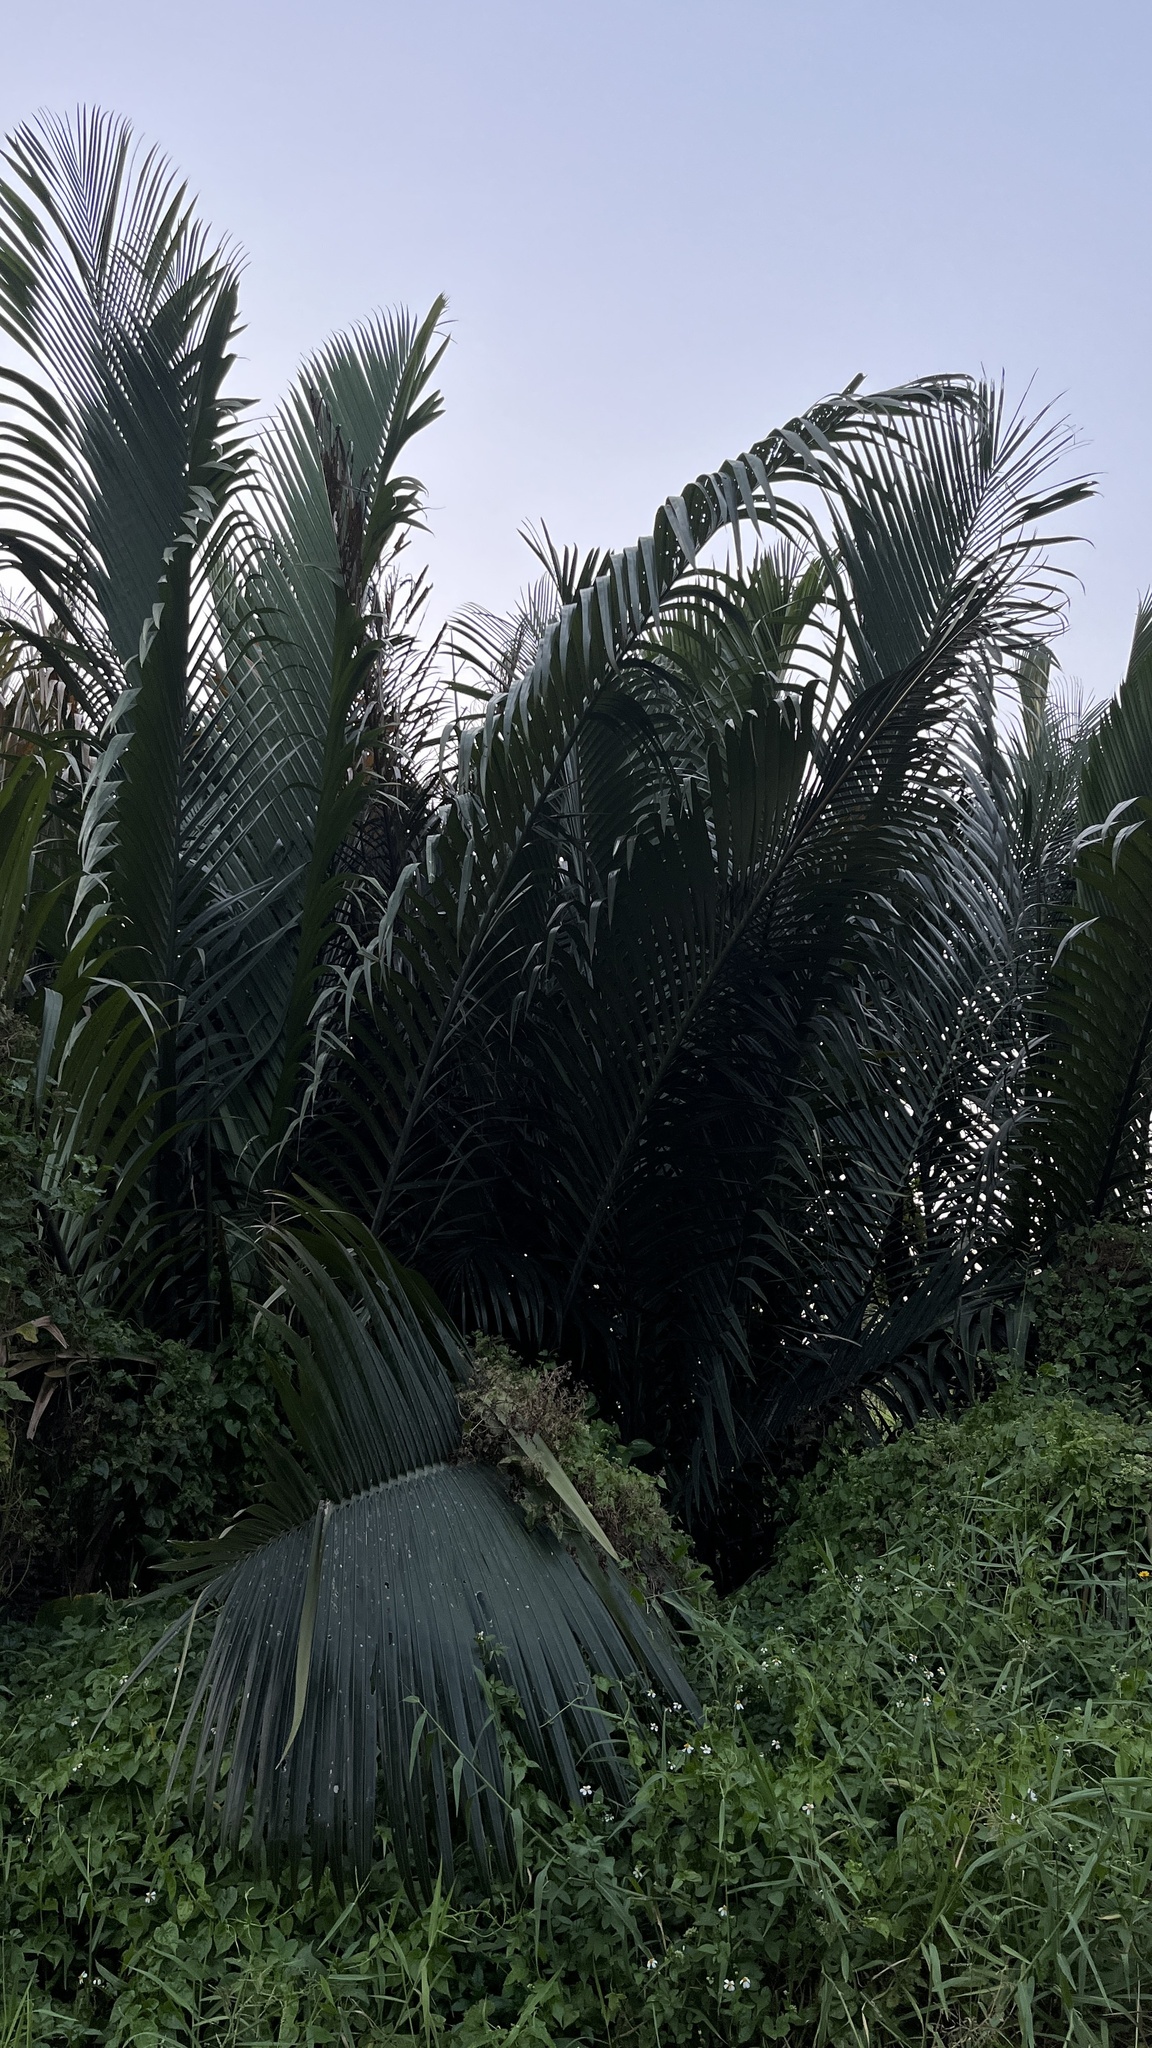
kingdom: Plantae
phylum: Tracheophyta
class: Liliopsida
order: Arecales
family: Arecaceae
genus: Nypa
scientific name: Nypa fruticans
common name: Mangrove palm
